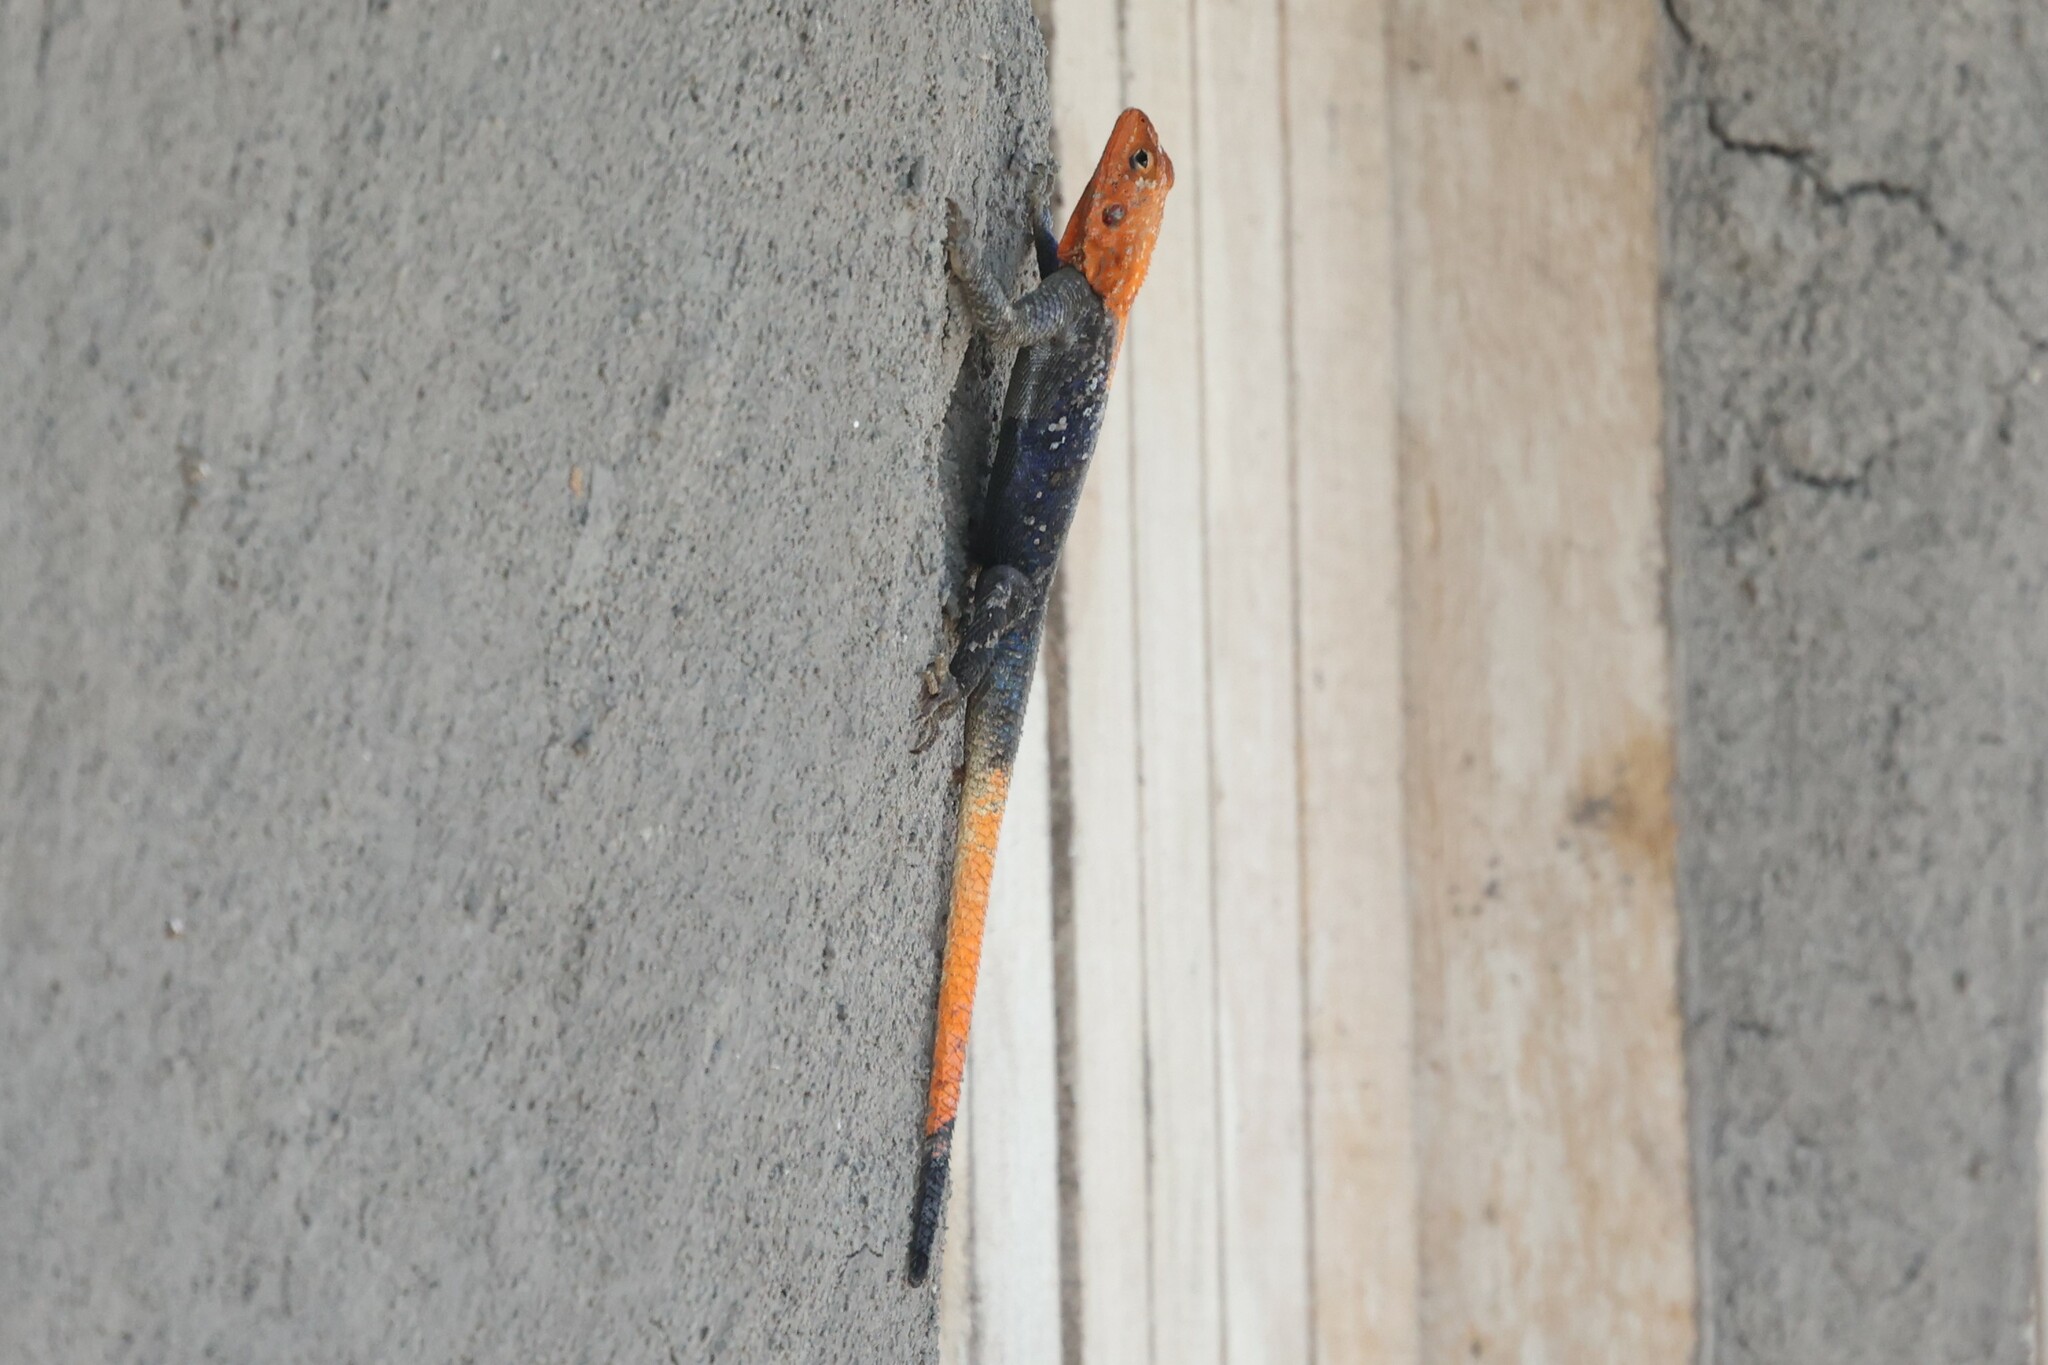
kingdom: Animalia
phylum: Chordata
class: Squamata
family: Agamidae
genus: Agama
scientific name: Agama finchi
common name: Finch’s agama
